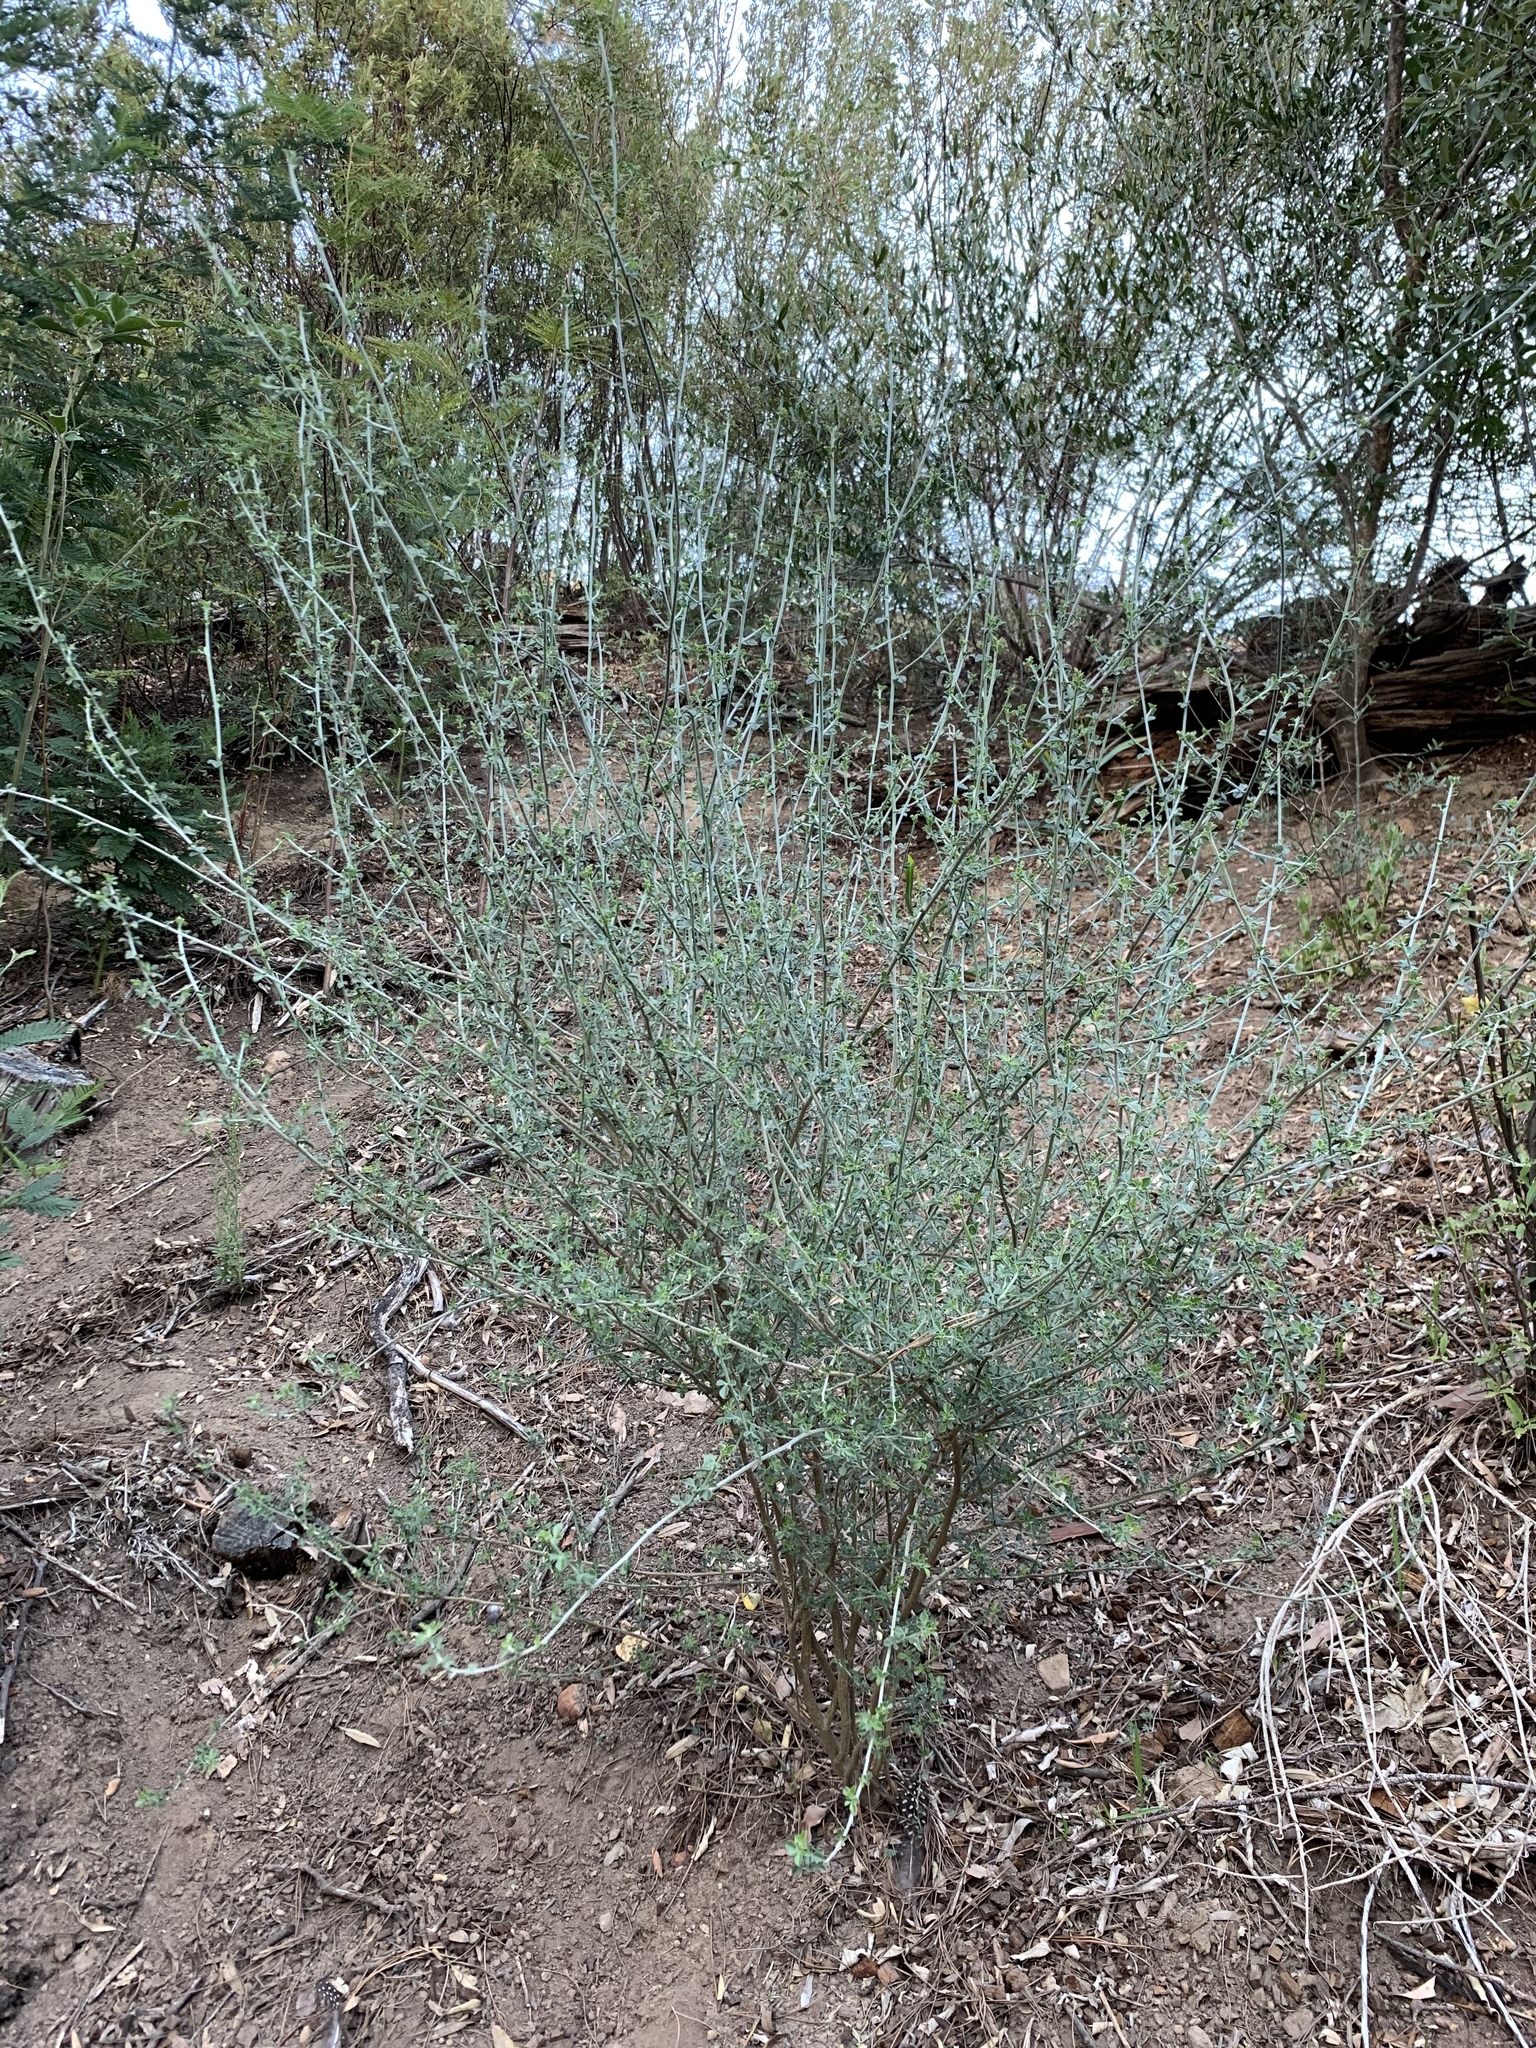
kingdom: Plantae
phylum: Tracheophyta
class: Magnoliopsida
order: Fabales
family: Fabaceae
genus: Psoralea
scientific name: Psoralea hirta
